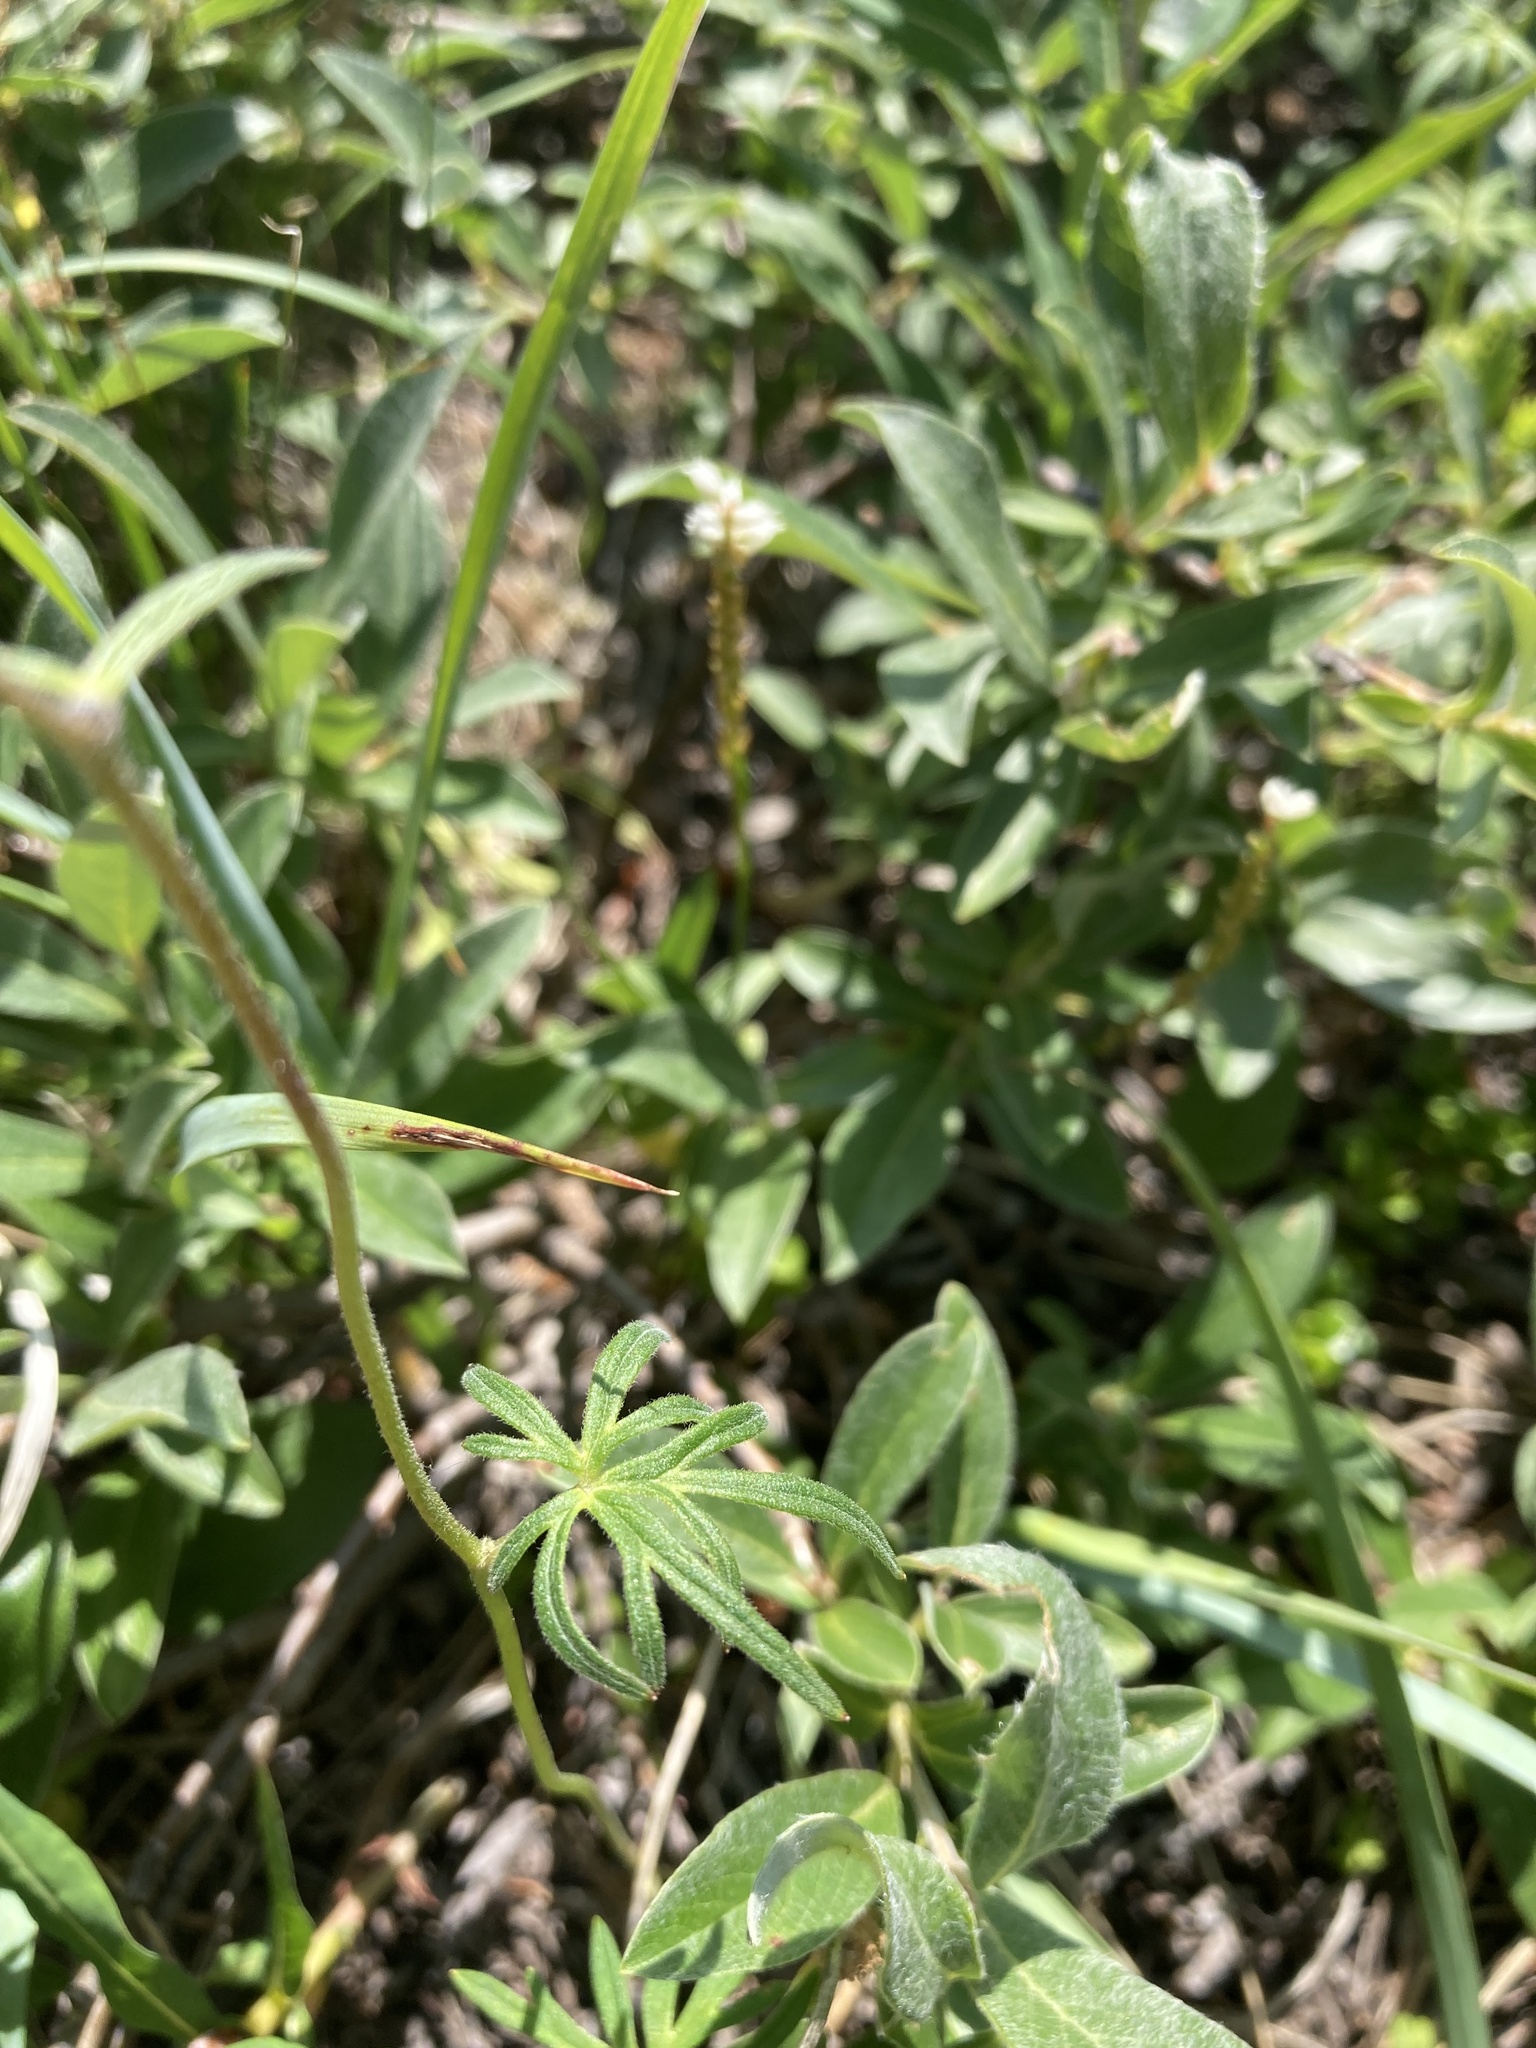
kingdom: Plantae
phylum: Tracheophyta
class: Magnoliopsida
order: Ranunculales
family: Ranunculaceae
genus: Aconitum
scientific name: Aconitum delphiniifolium
